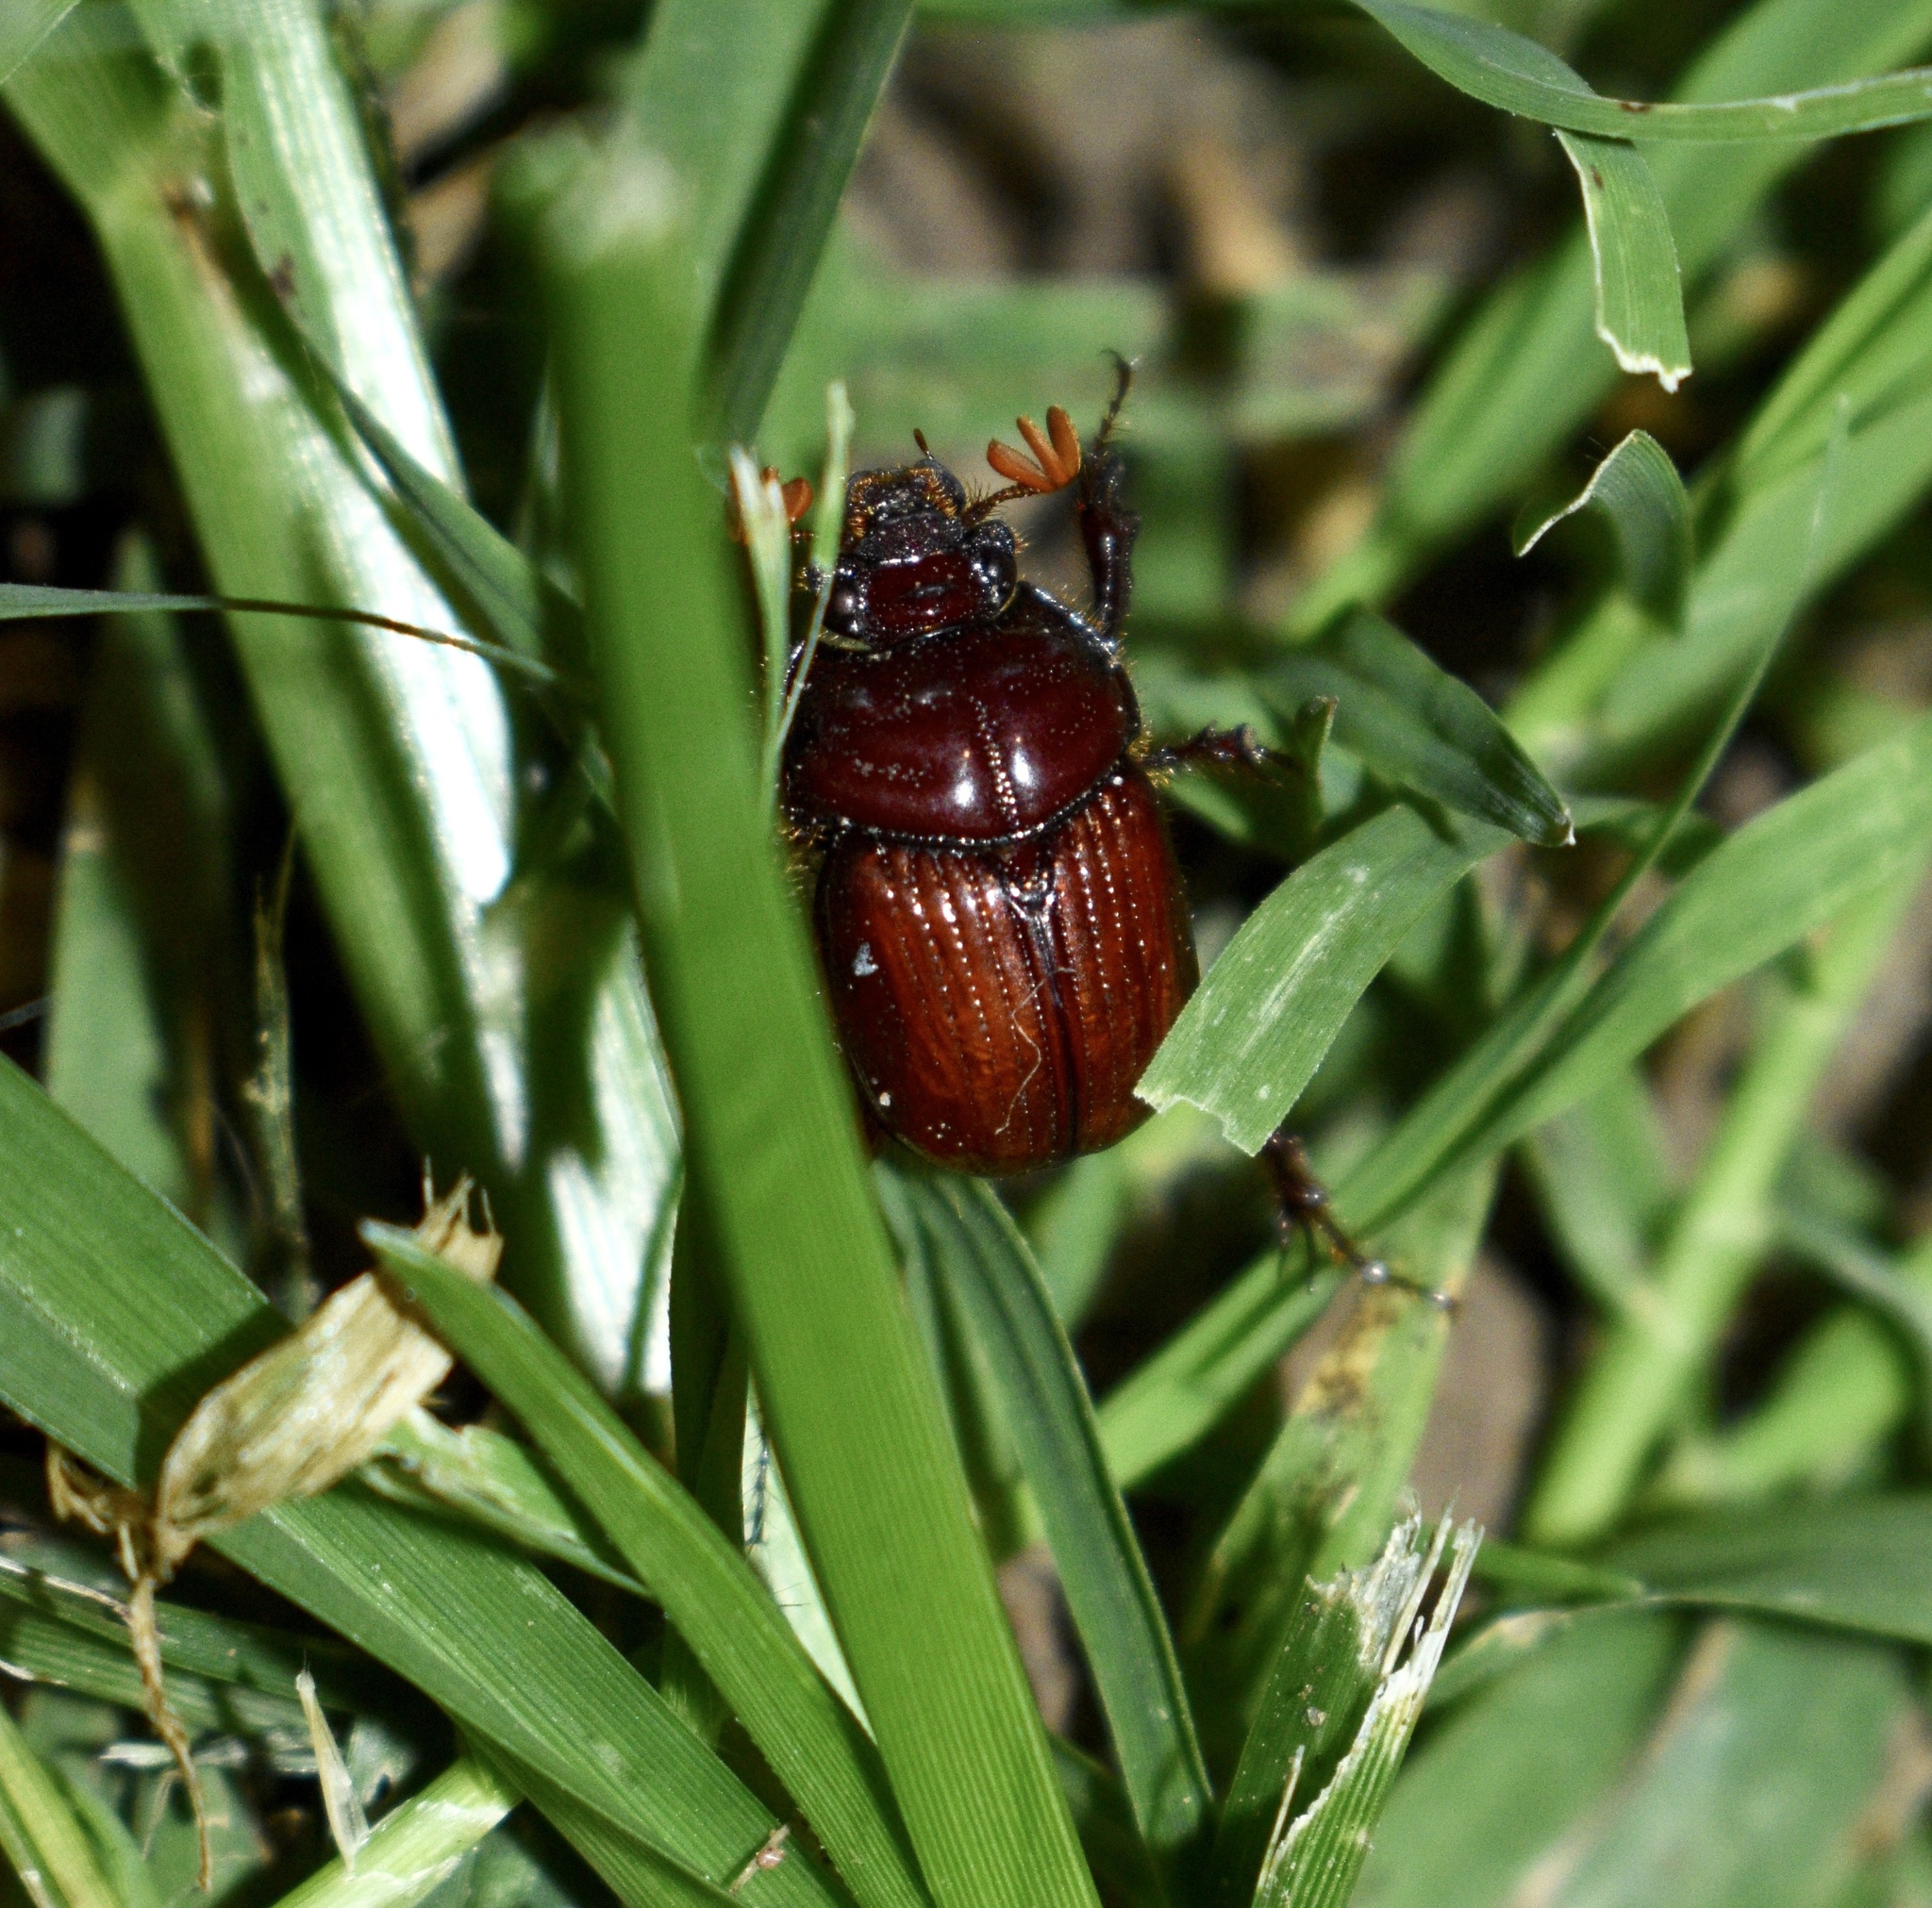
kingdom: Animalia
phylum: Arthropoda
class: Insecta
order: Coleoptera
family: Geotrupidae
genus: Eucanthus
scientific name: Eucanthus impressus
